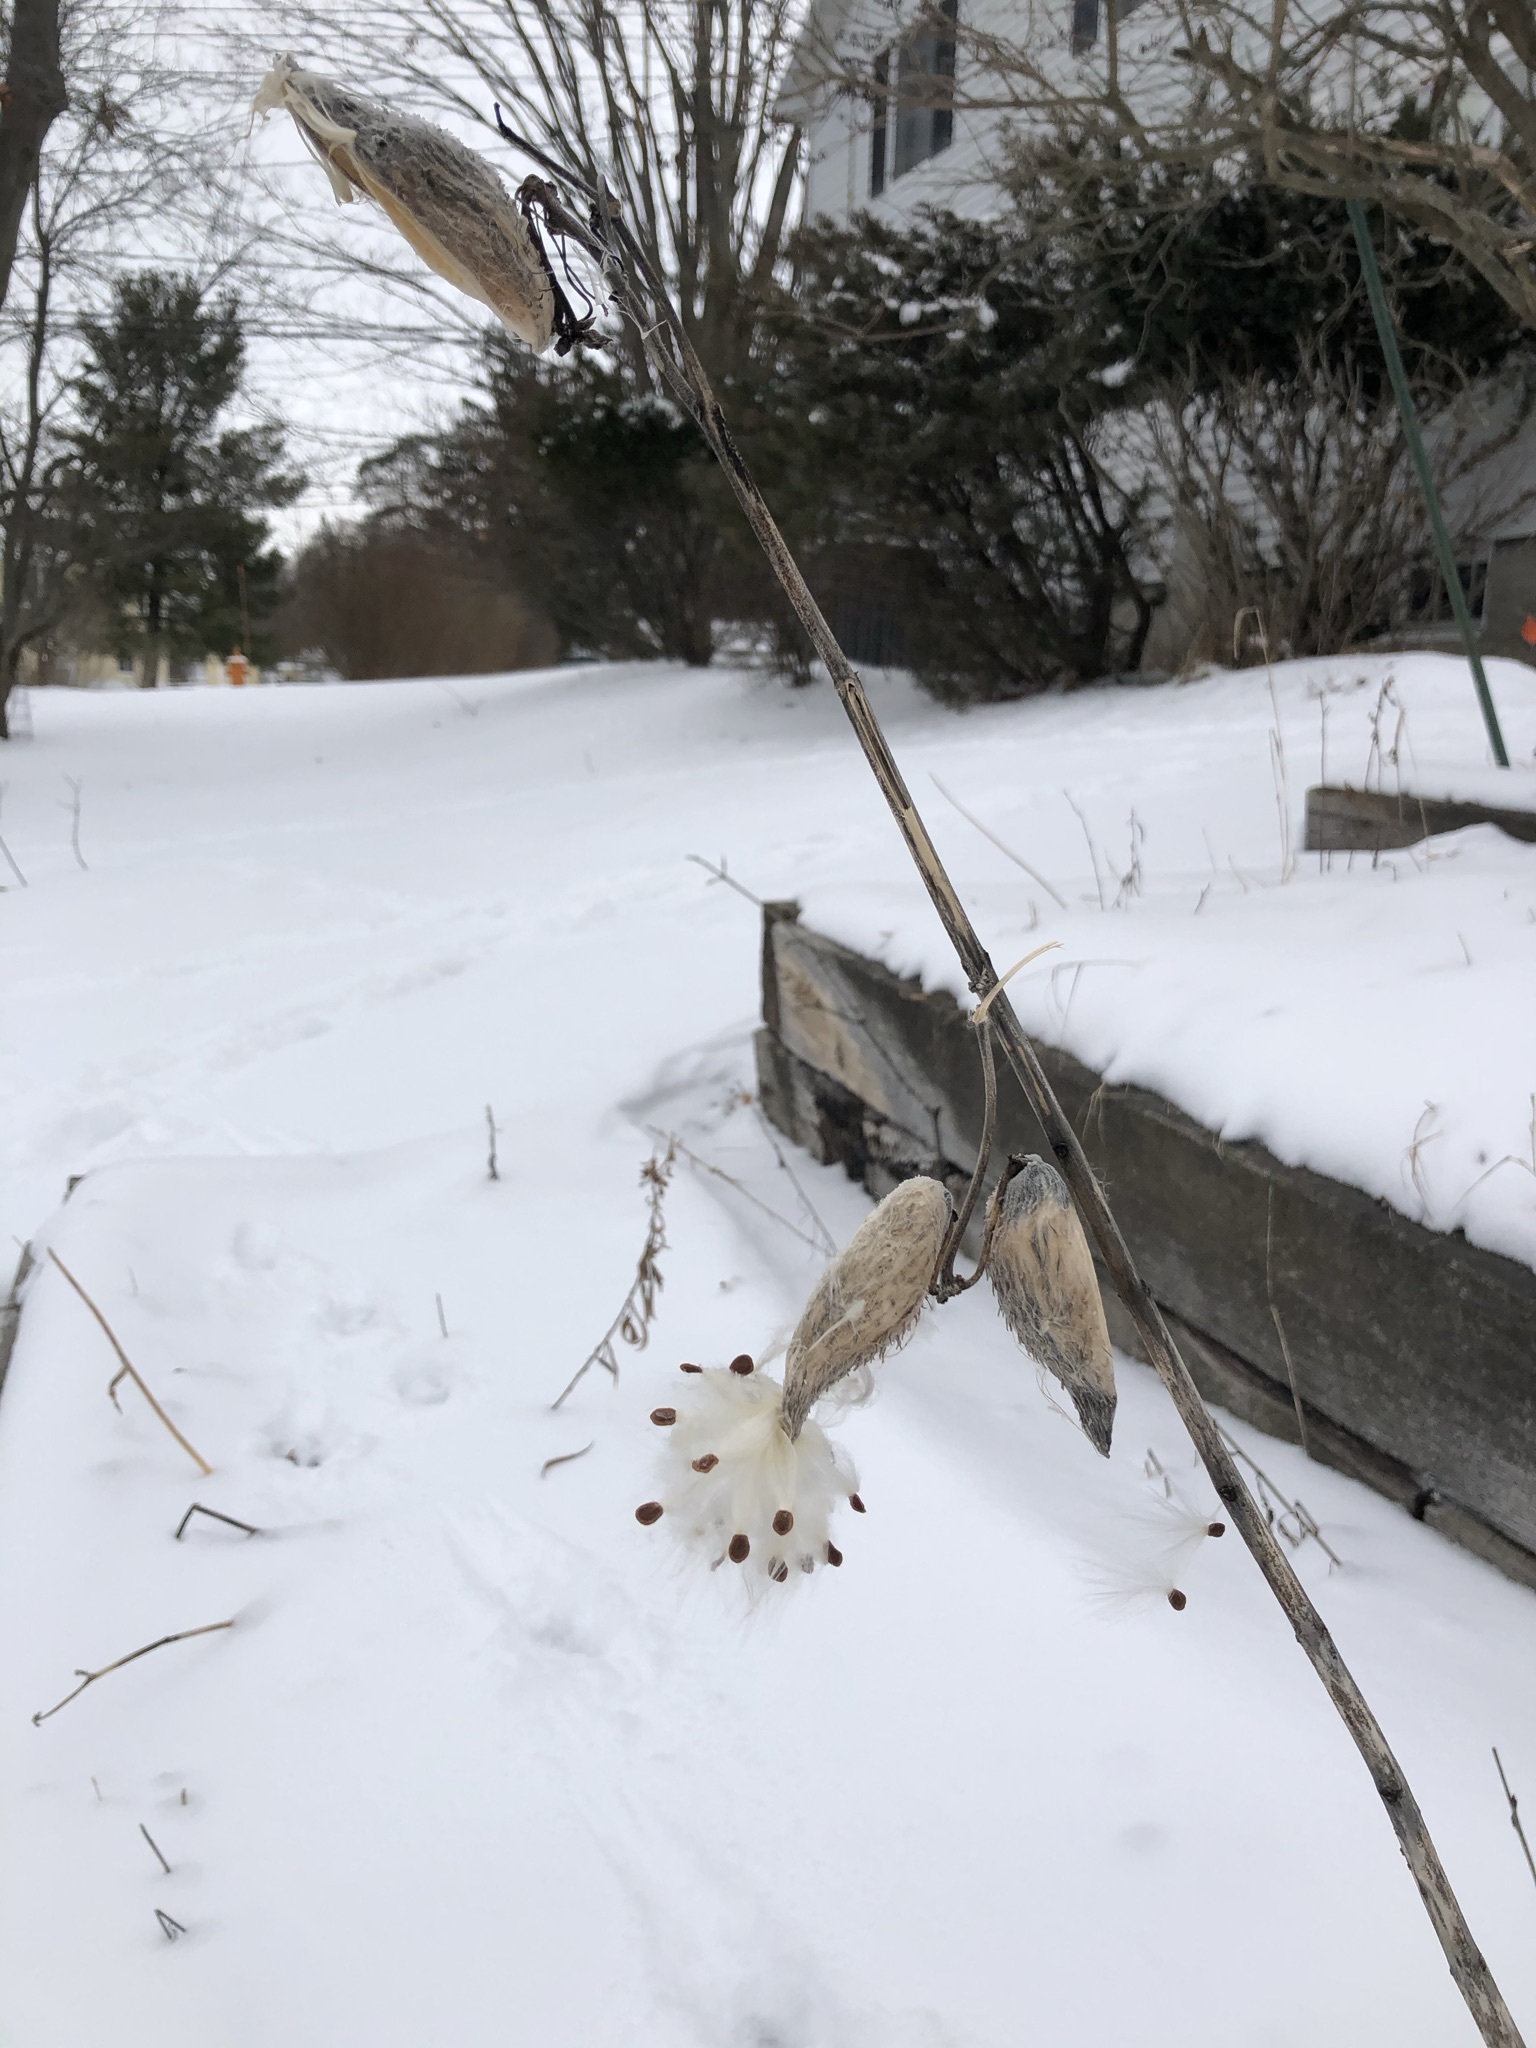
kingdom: Plantae
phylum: Tracheophyta
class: Magnoliopsida
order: Gentianales
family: Apocynaceae
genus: Asclepias
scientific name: Asclepias syriaca
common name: Common milkweed
